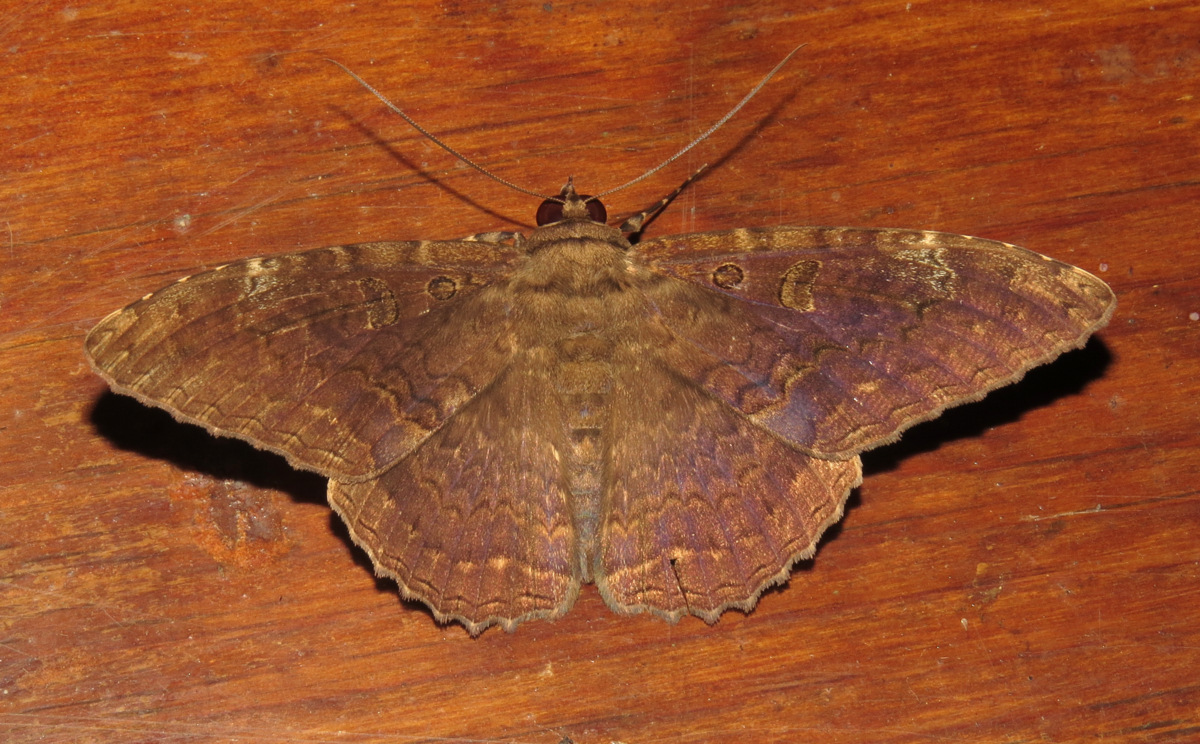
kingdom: Animalia
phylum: Arthropoda
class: Insecta
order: Lepidoptera
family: Erebidae
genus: Feigeria
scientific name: Feigeria magna
